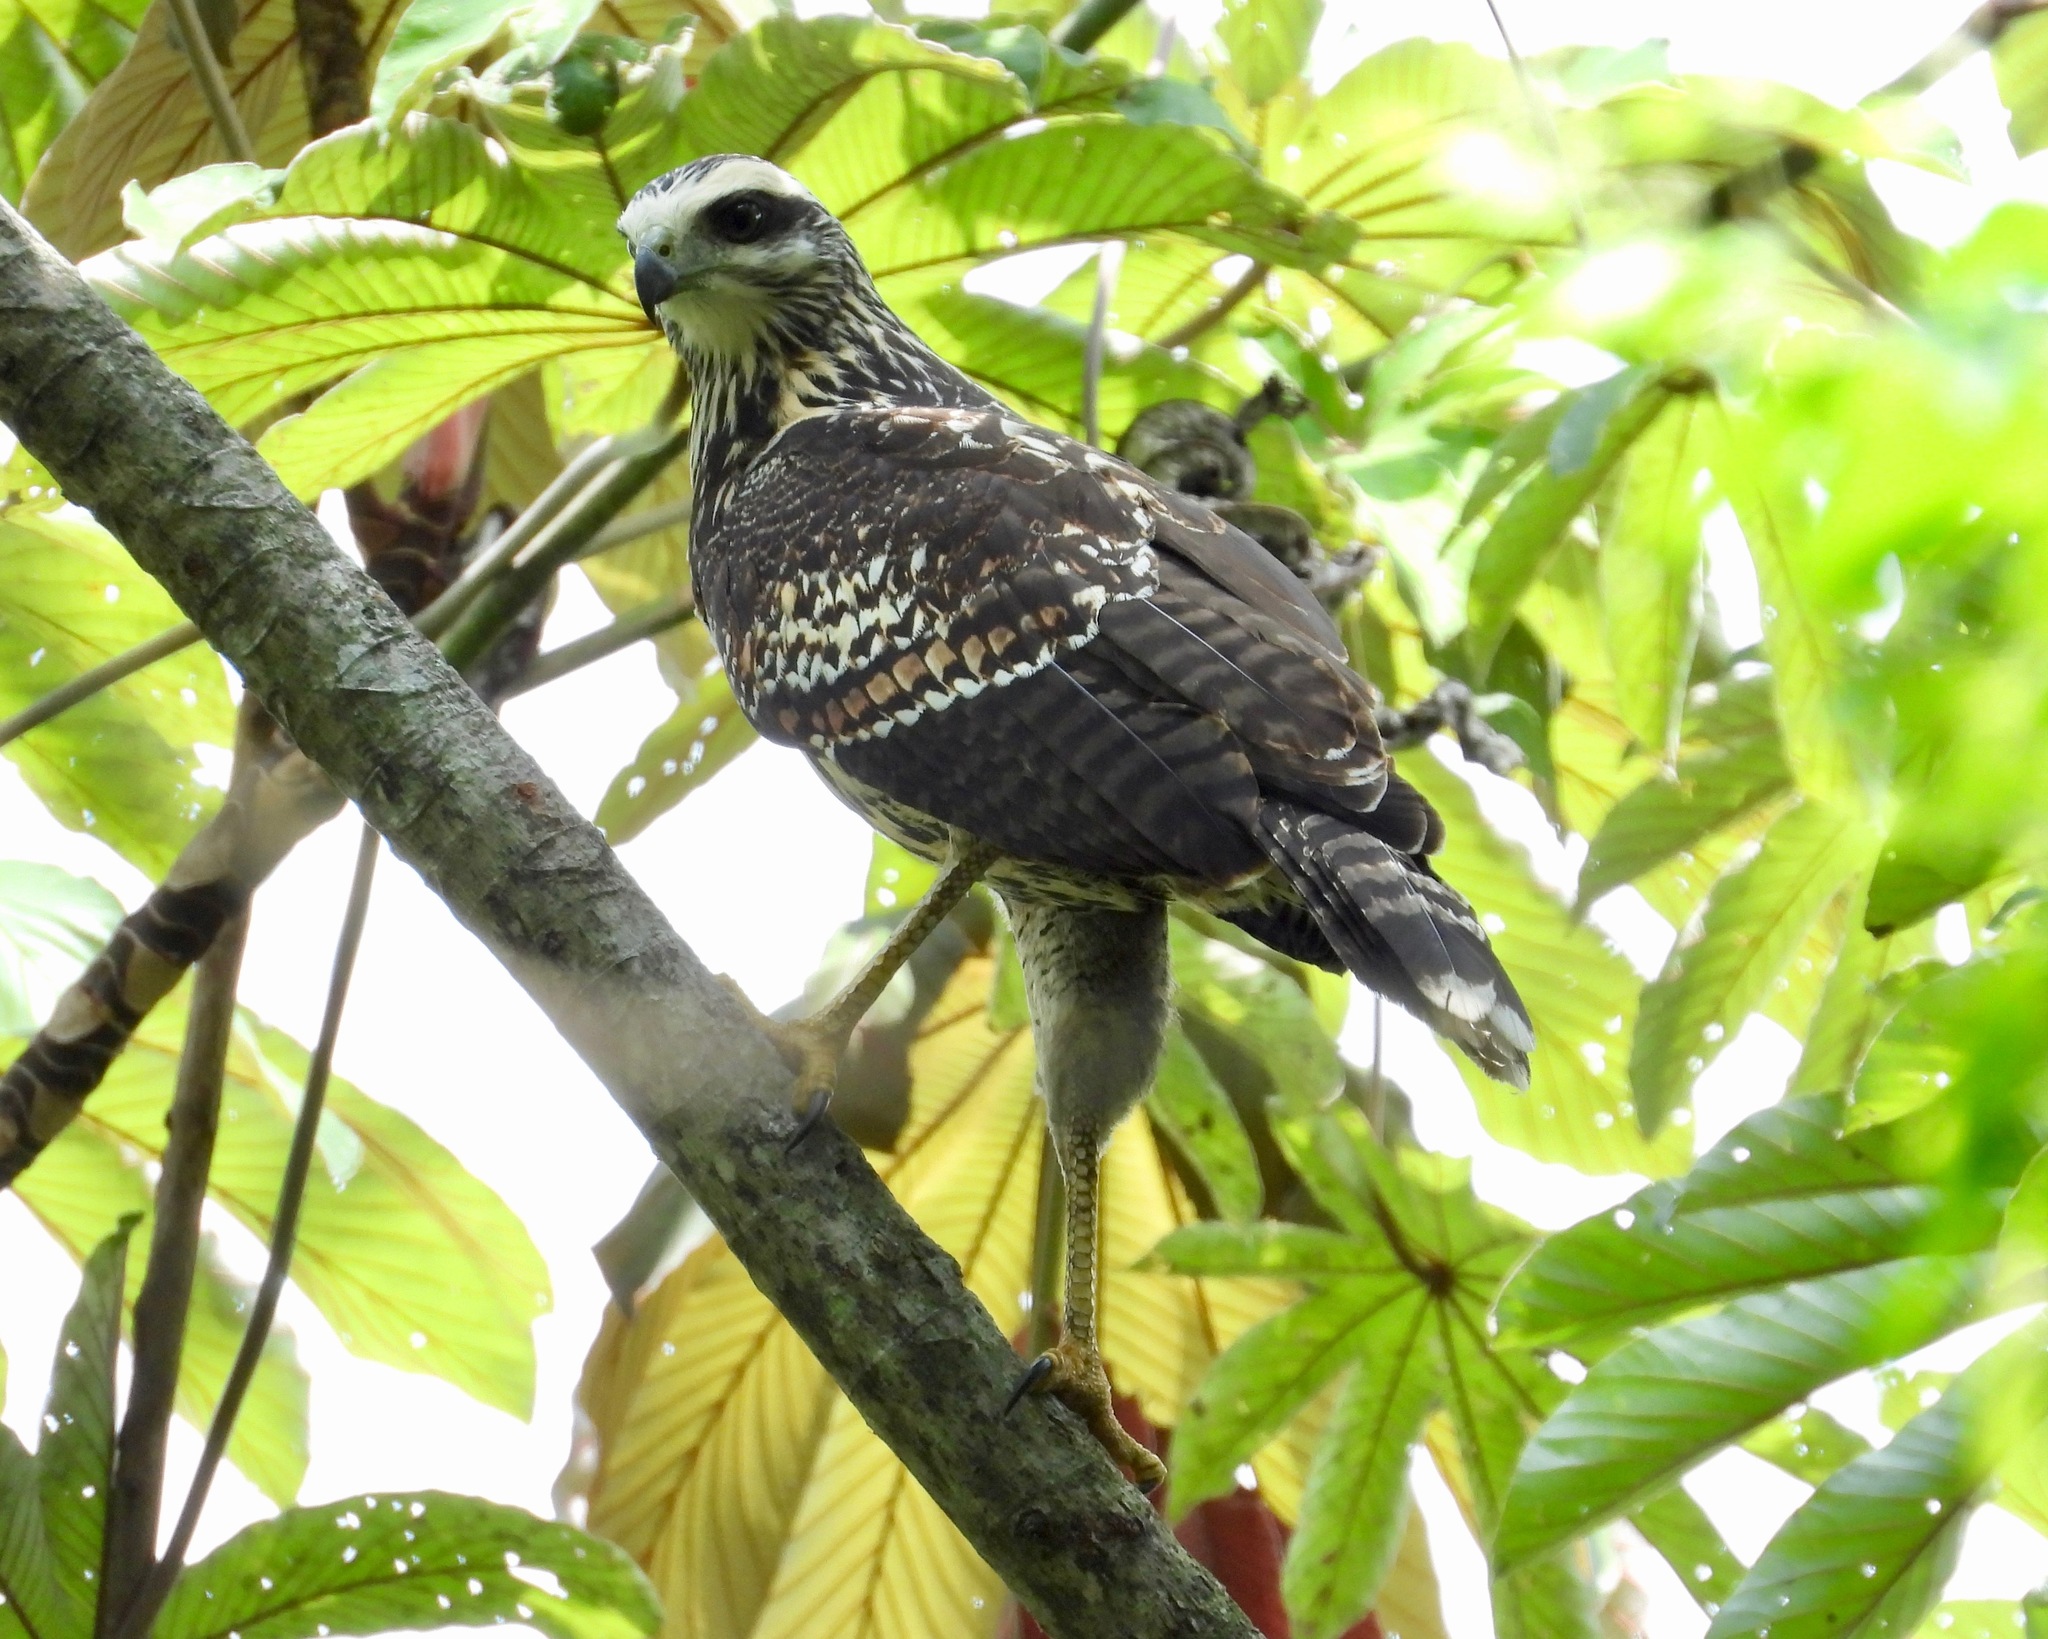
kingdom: Animalia
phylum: Chordata
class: Aves
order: Accipitriformes
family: Accipitridae
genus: Buteogallus
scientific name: Buteogallus urubitinga
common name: Great black hawk
